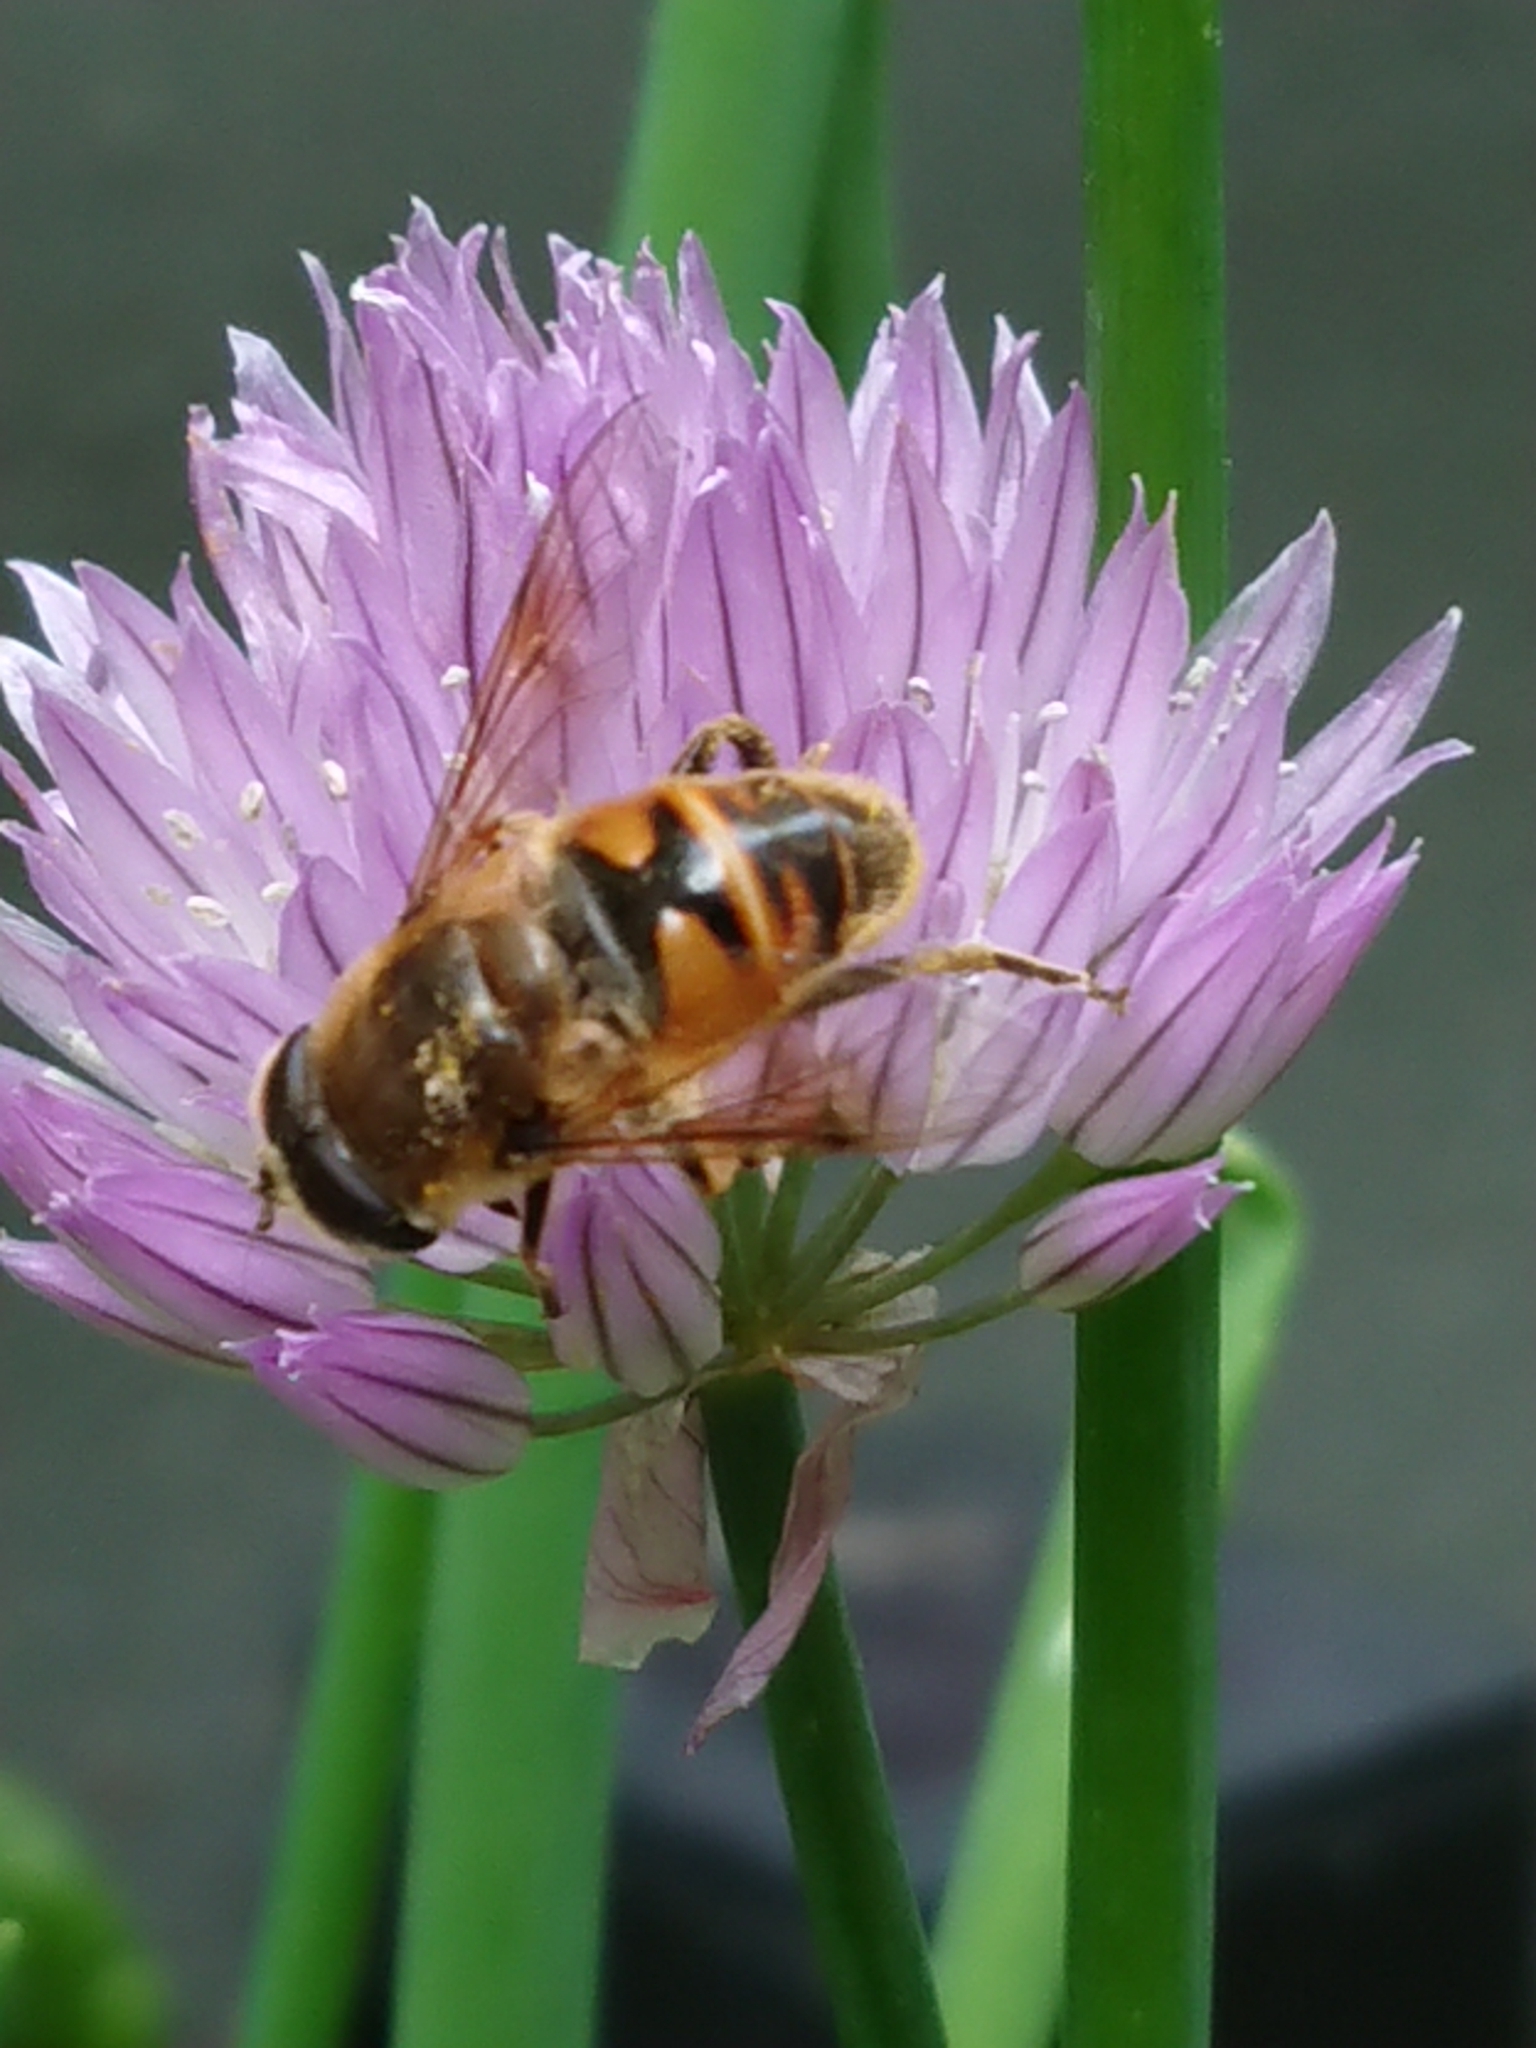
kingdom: Animalia
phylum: Arthropoda
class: Insecta
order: Diptera
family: Syrphidae
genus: Eristalis
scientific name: Eristalis tenax
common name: Drone fly
